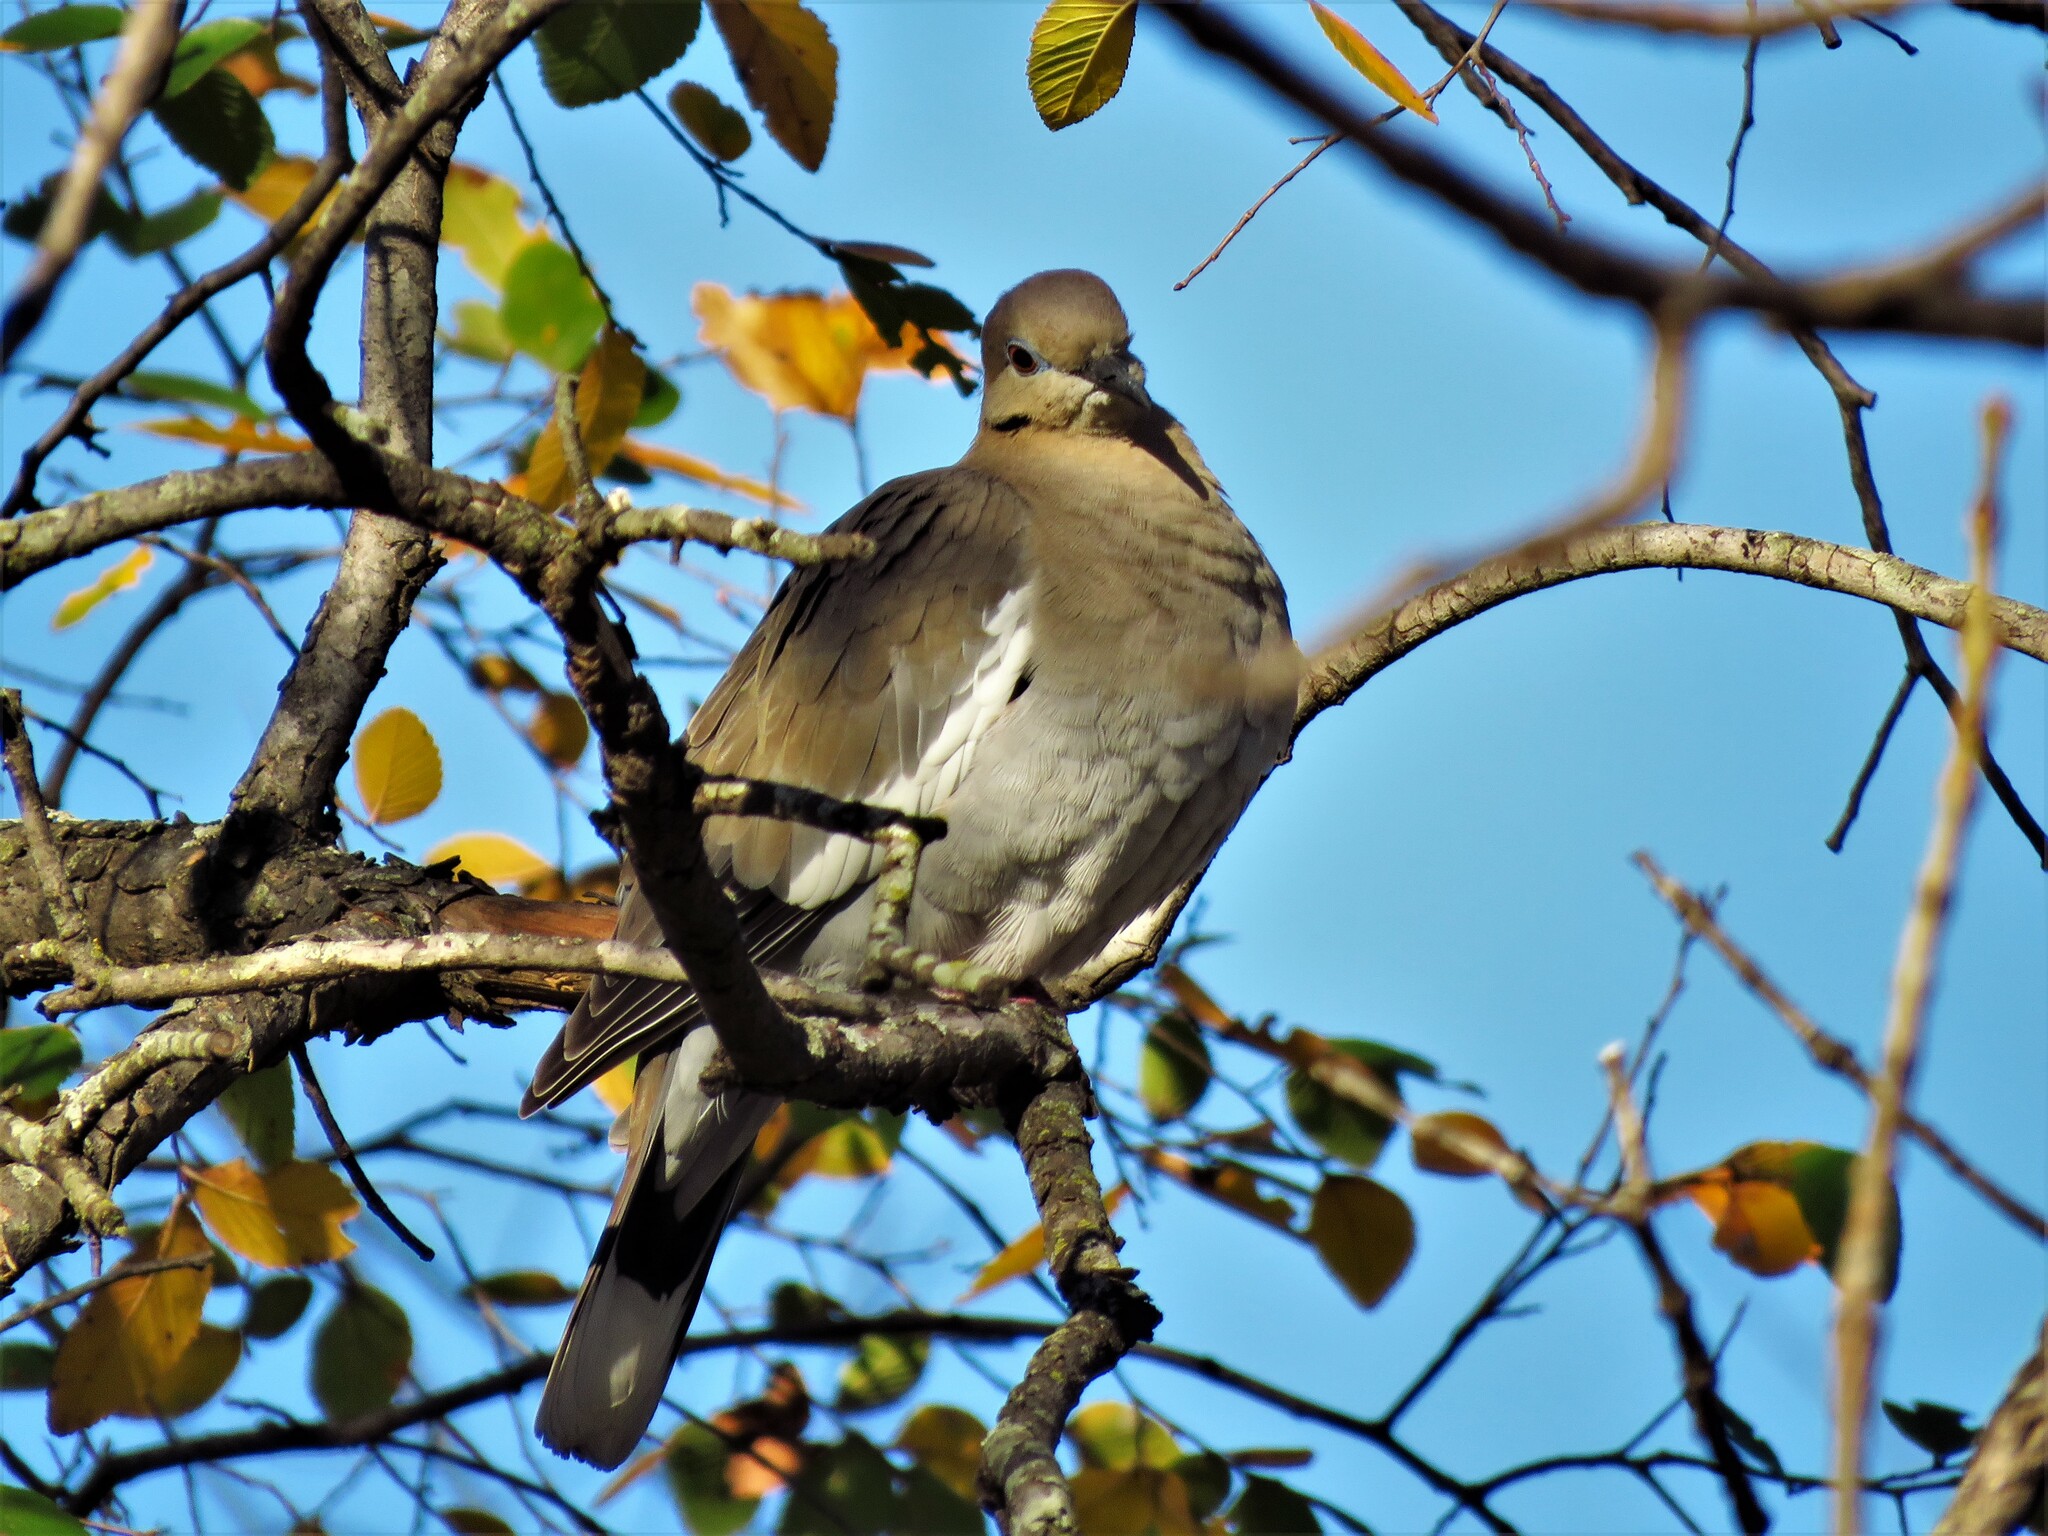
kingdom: Animalia
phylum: Chordata
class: Aves
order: Columbiformes
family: Columbidae
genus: Zenaida
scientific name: Zenaida asiatica
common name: White-winged dove
